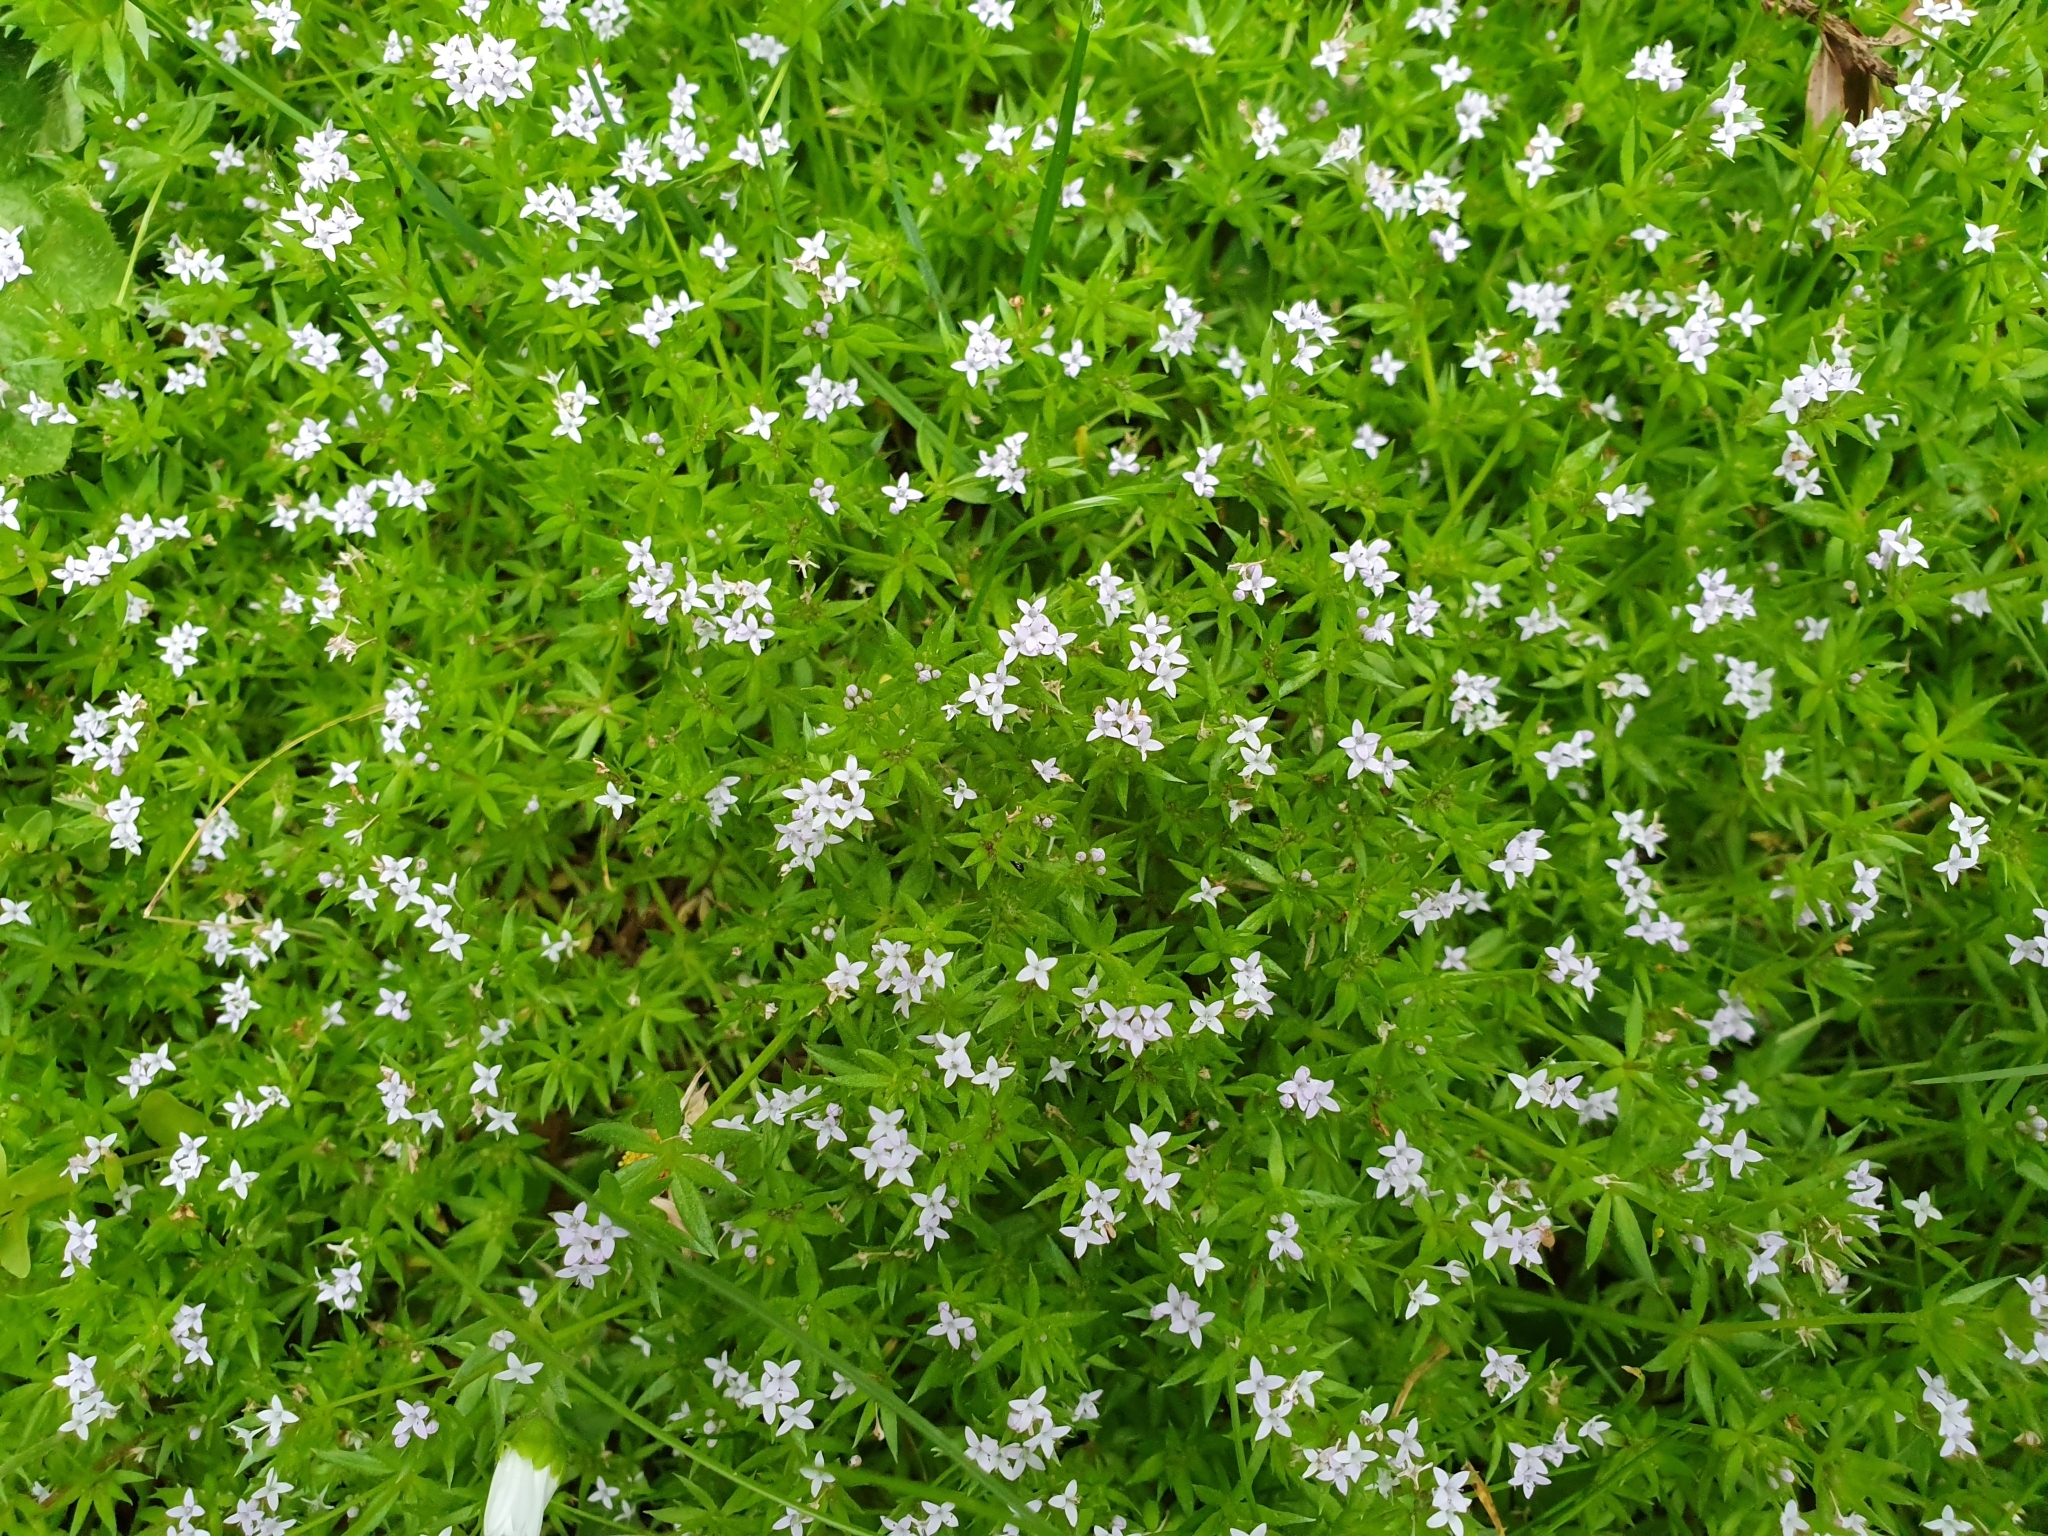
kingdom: Plantae
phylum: Tracheophyta
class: Magnoliopsida
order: Gentianales
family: Rubiaceae
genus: Sherardia
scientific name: Sherardia arvensis
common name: Field madder
